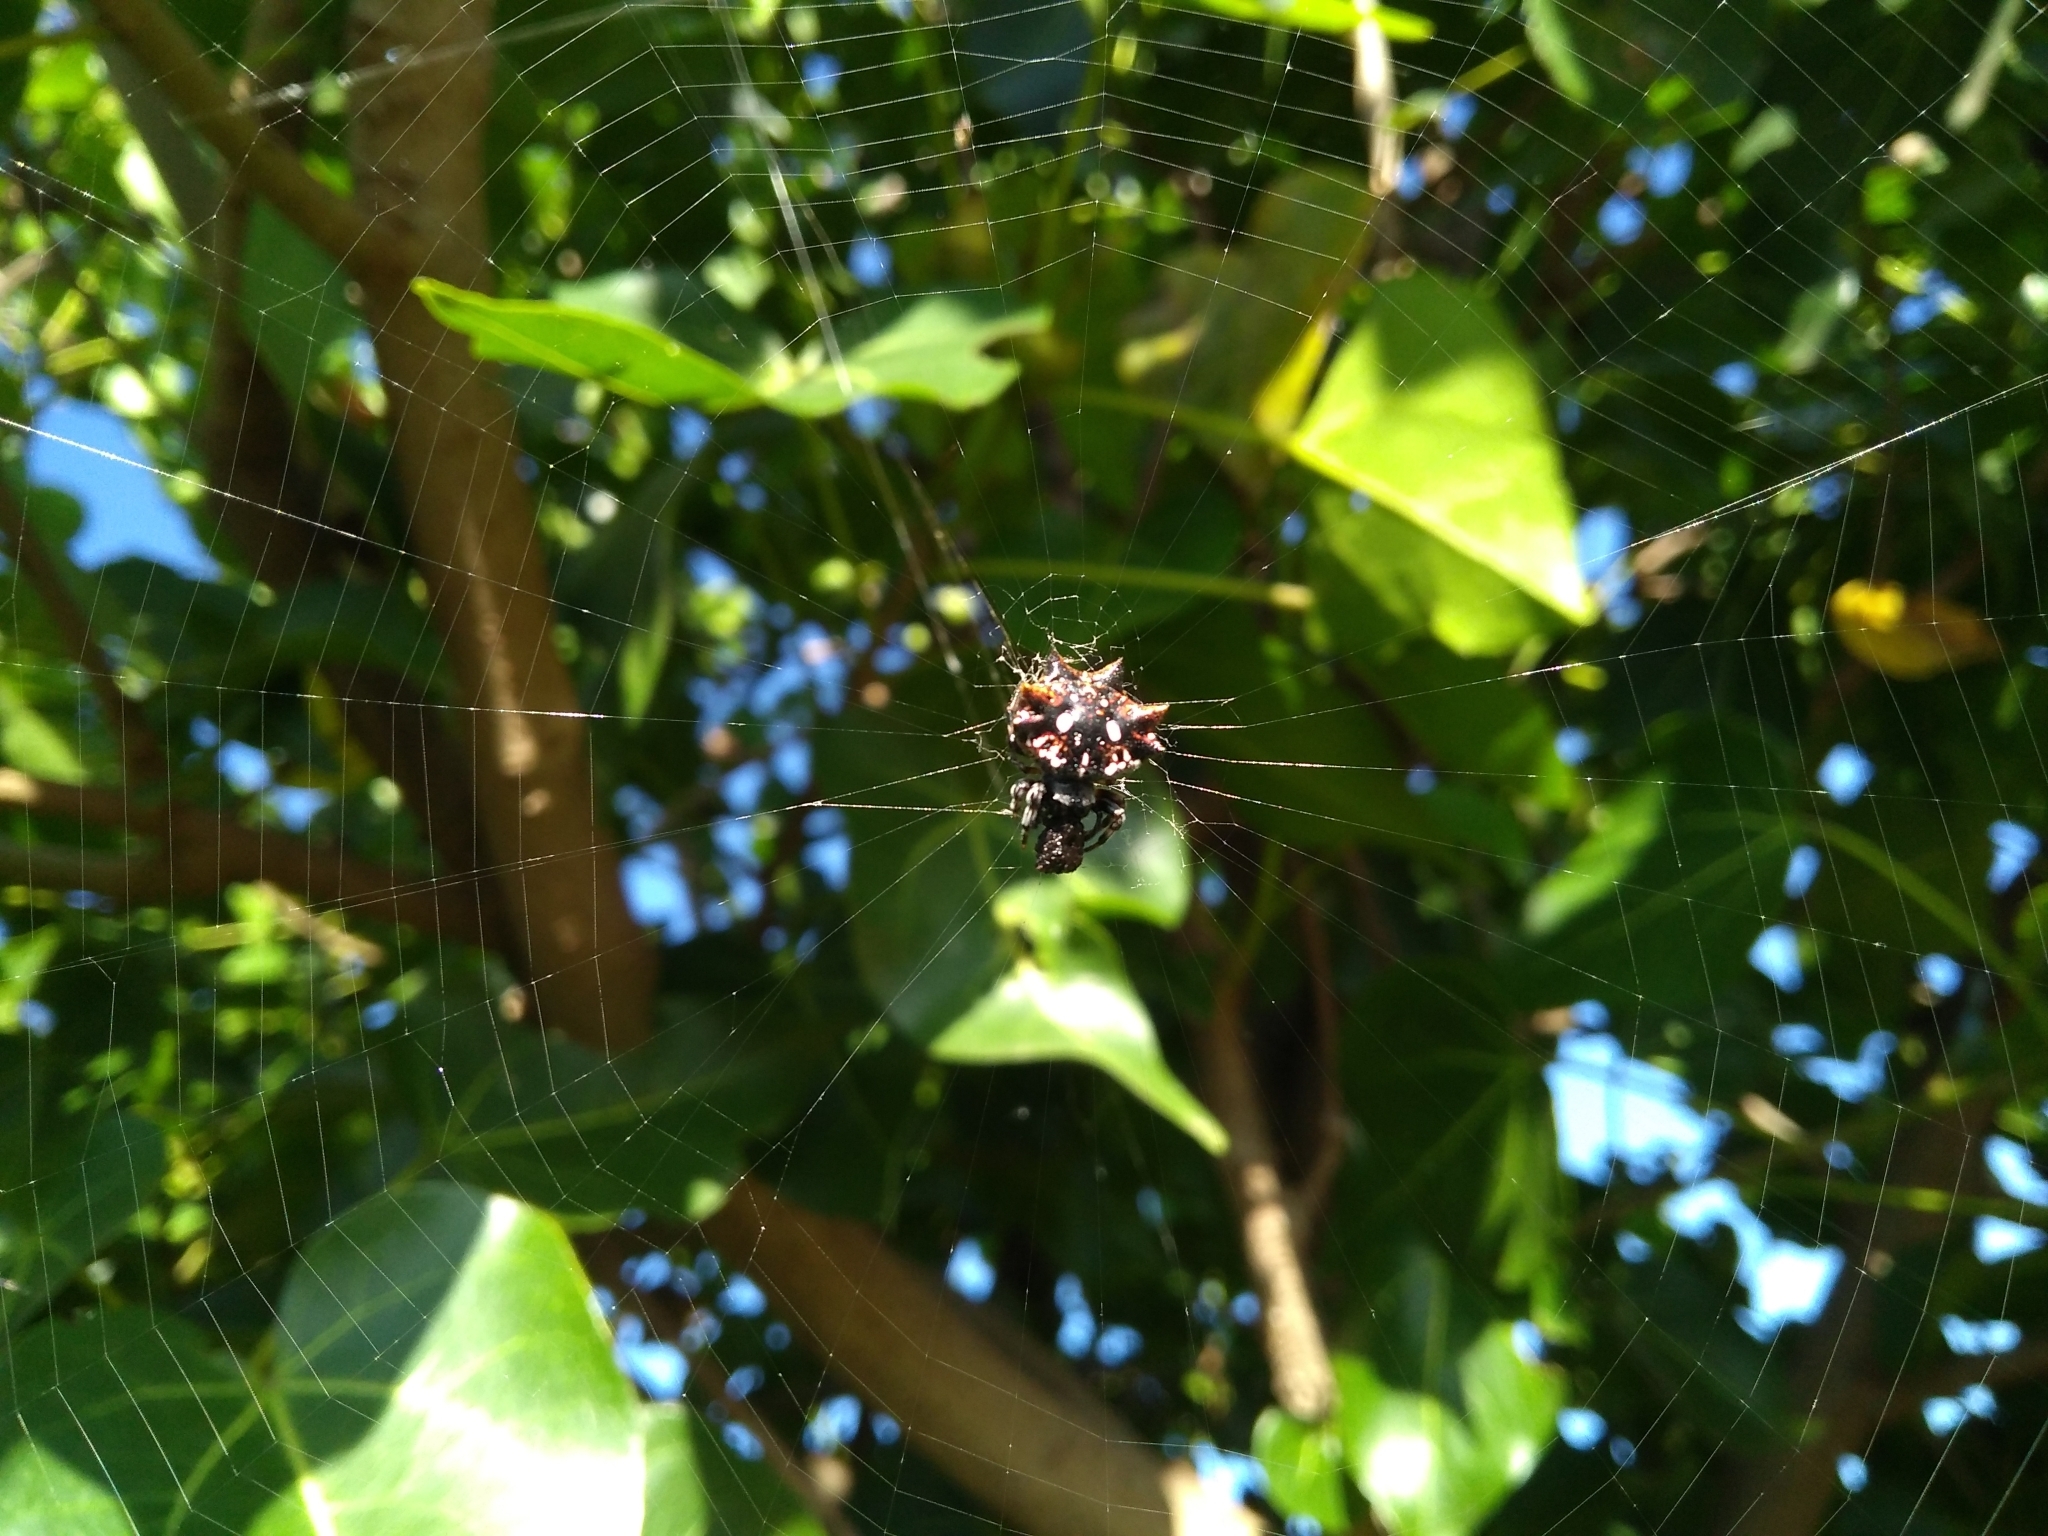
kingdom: Animalia
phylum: Arthropoda
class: Arachnida
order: Araneae
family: Araneidae
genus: Thelacantha
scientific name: Thelacantha brevispina
